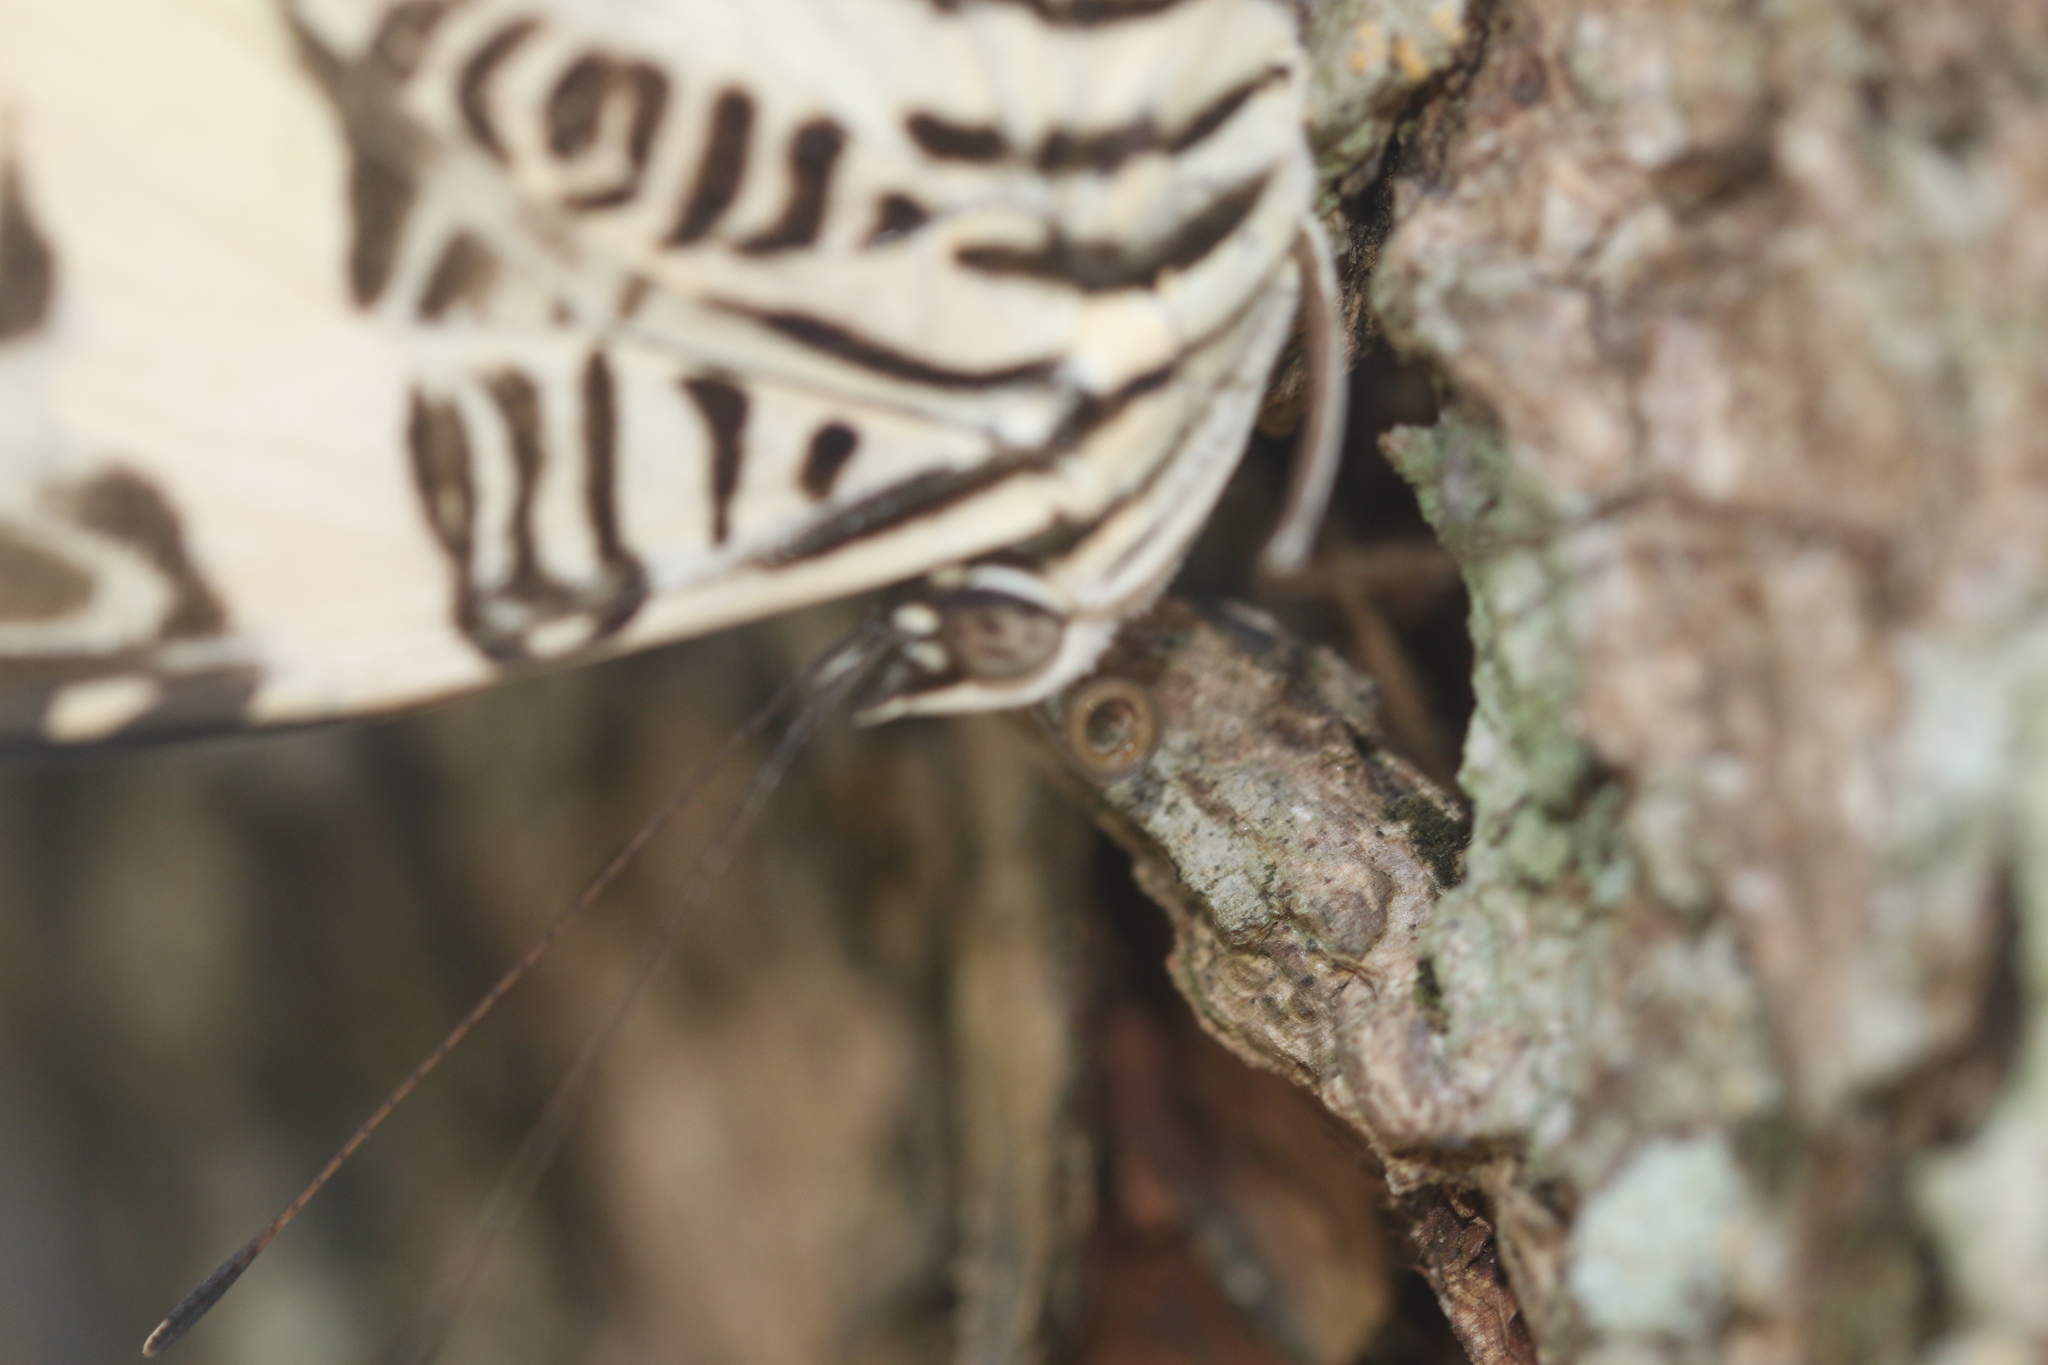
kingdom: Animalia
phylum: Arthropoda
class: Insecta
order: Lepidoptera
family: Nymphalidae
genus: Colobura
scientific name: Colobura dirce
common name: Dirce beauty
